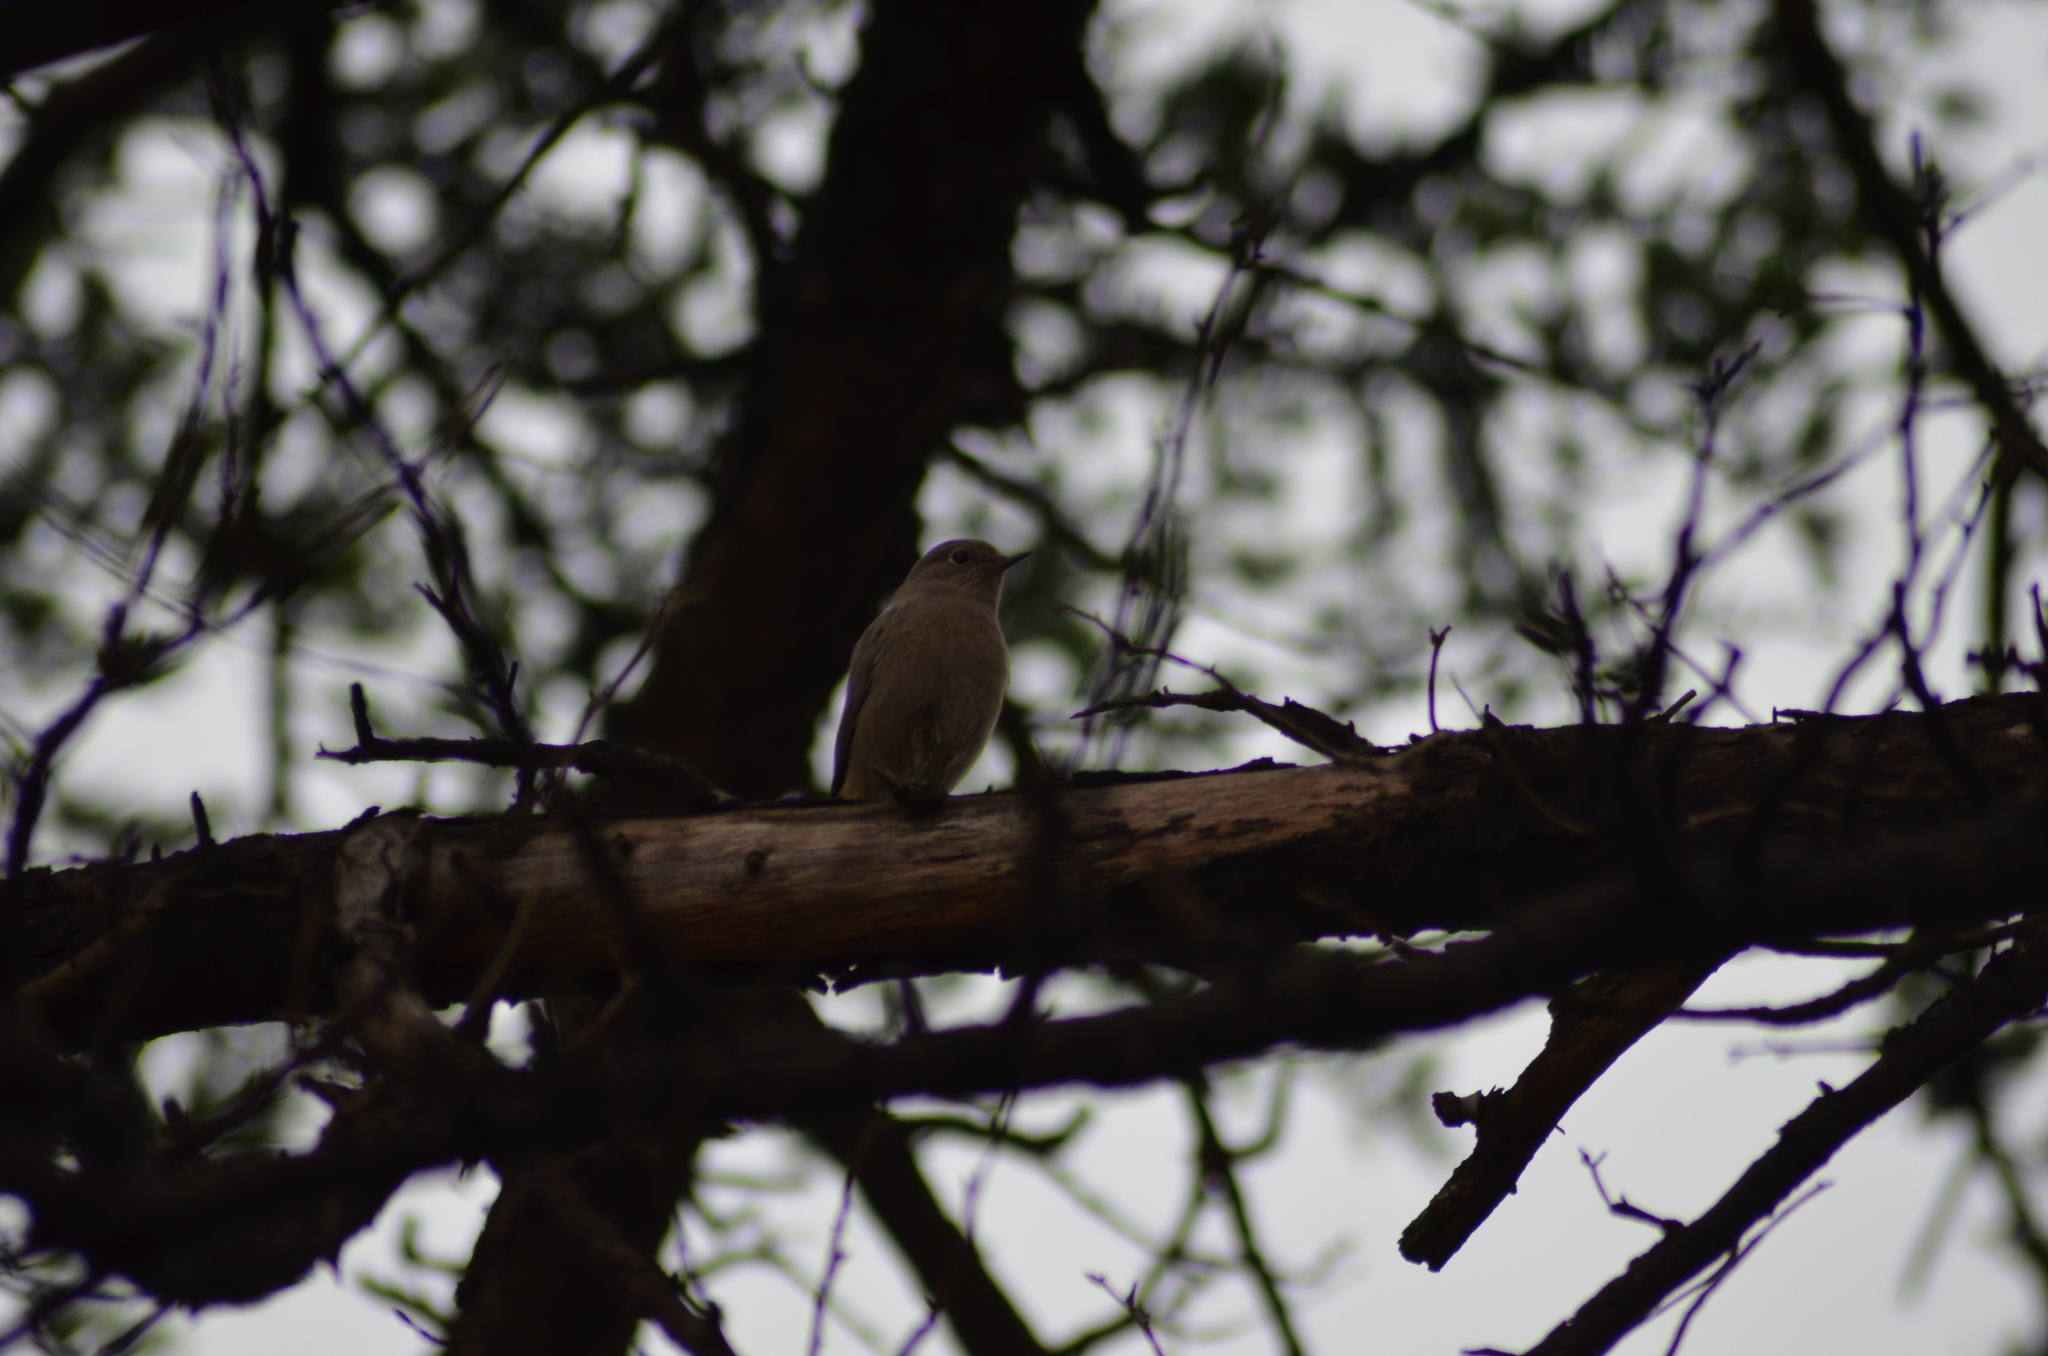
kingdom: Animalia
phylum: Chordata
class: Aves
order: Passeriformes
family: Muscicapidae
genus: Phoenicurus
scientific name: Phoenicurus ochruros
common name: Black redstart
